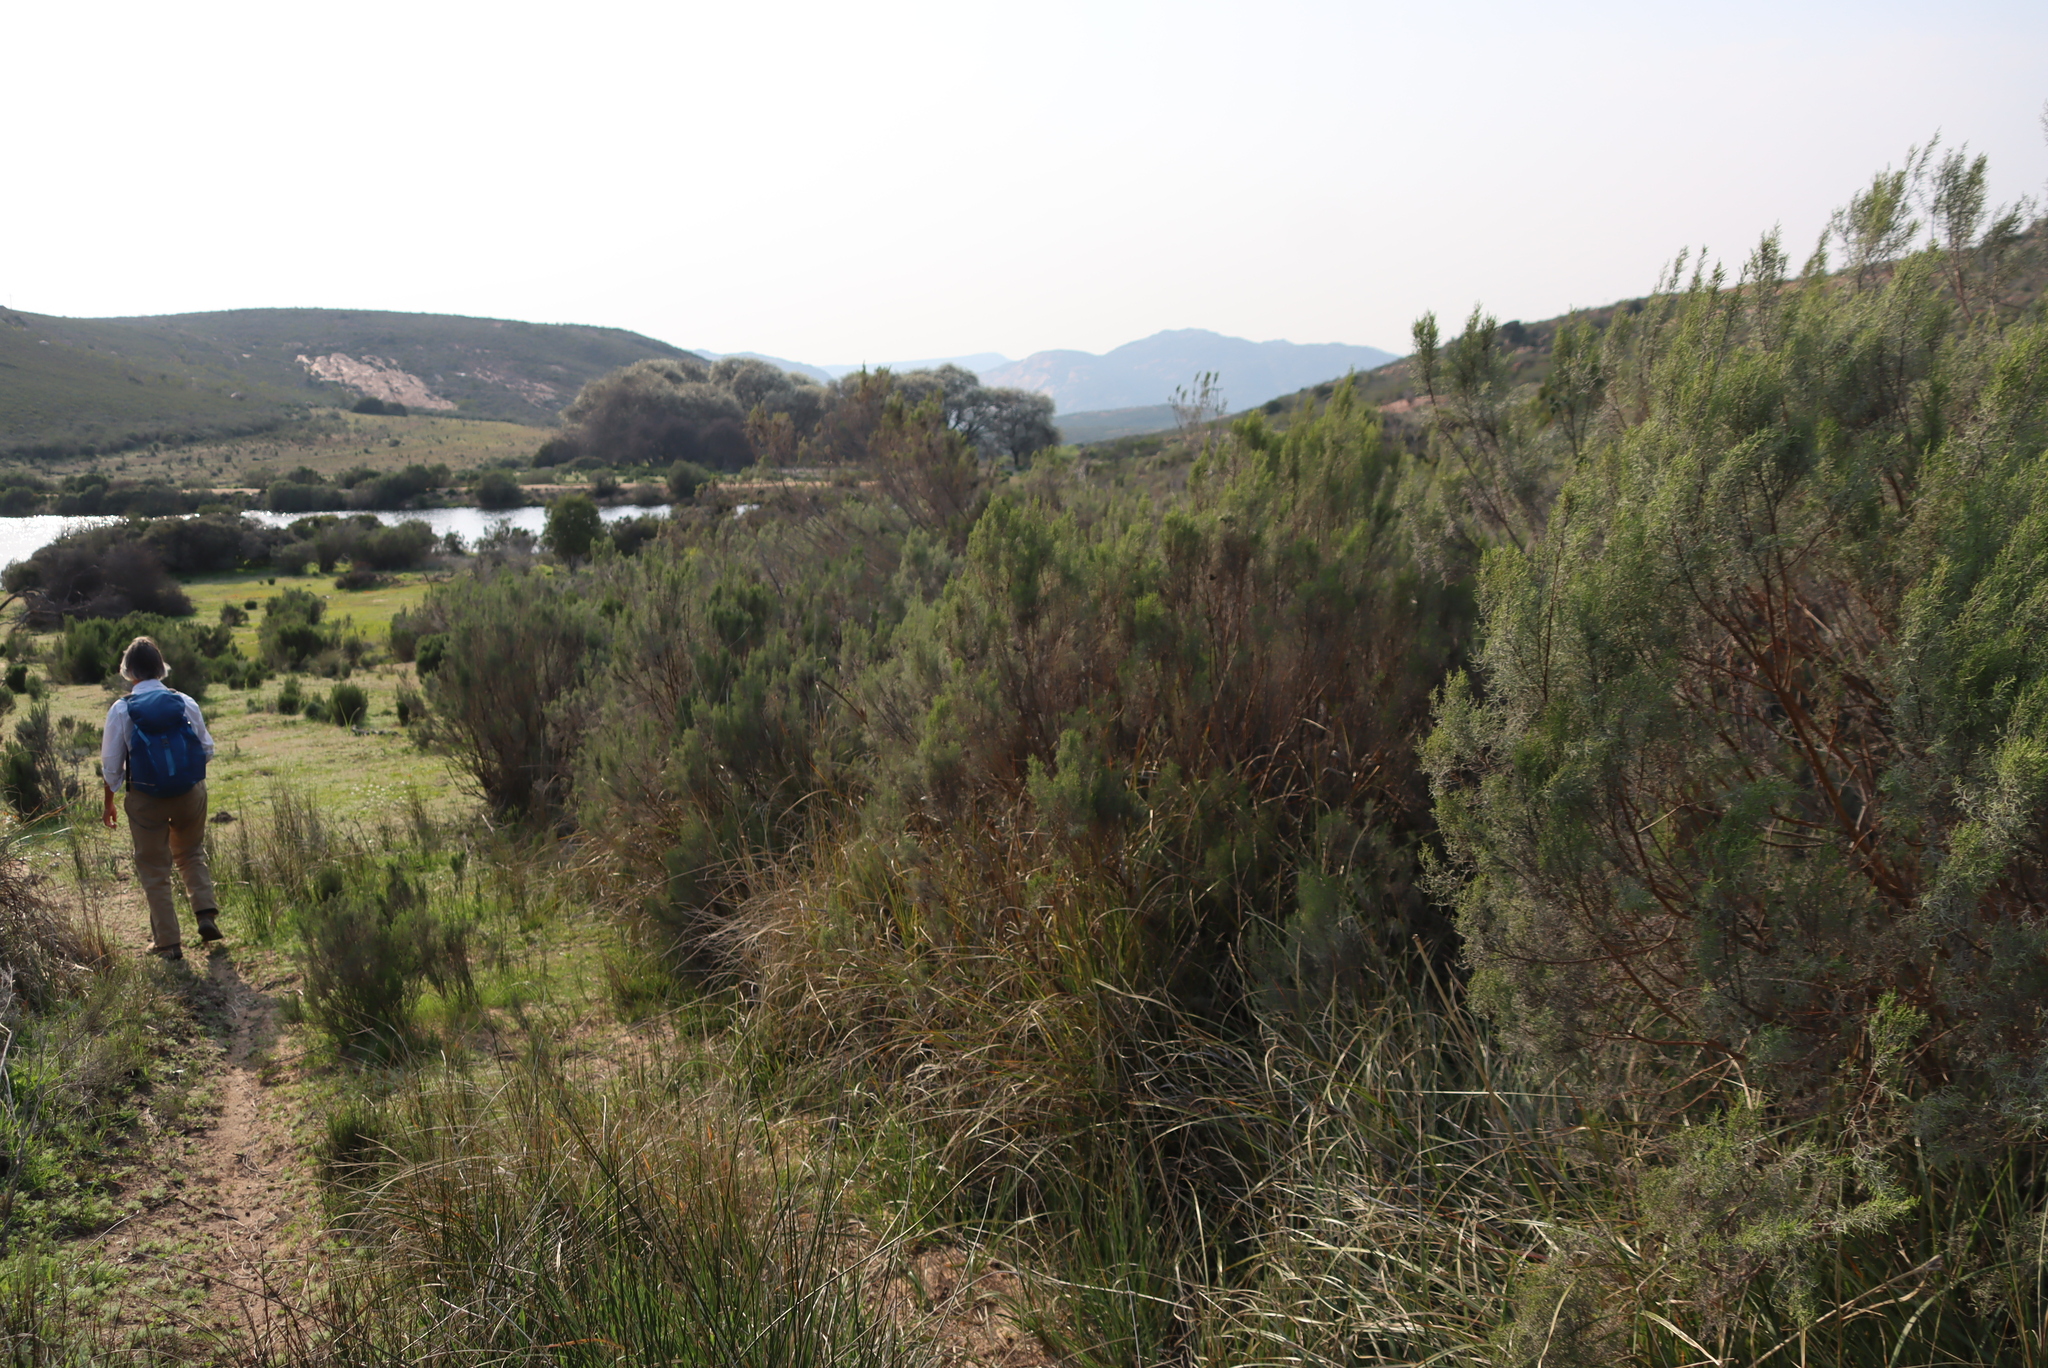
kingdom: Plantae
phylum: Tracheophyta
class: Magnoliopsida
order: Asterales
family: Asteraceae
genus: Dicerothamnus
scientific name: Dicerothamnus rhinocerotis
